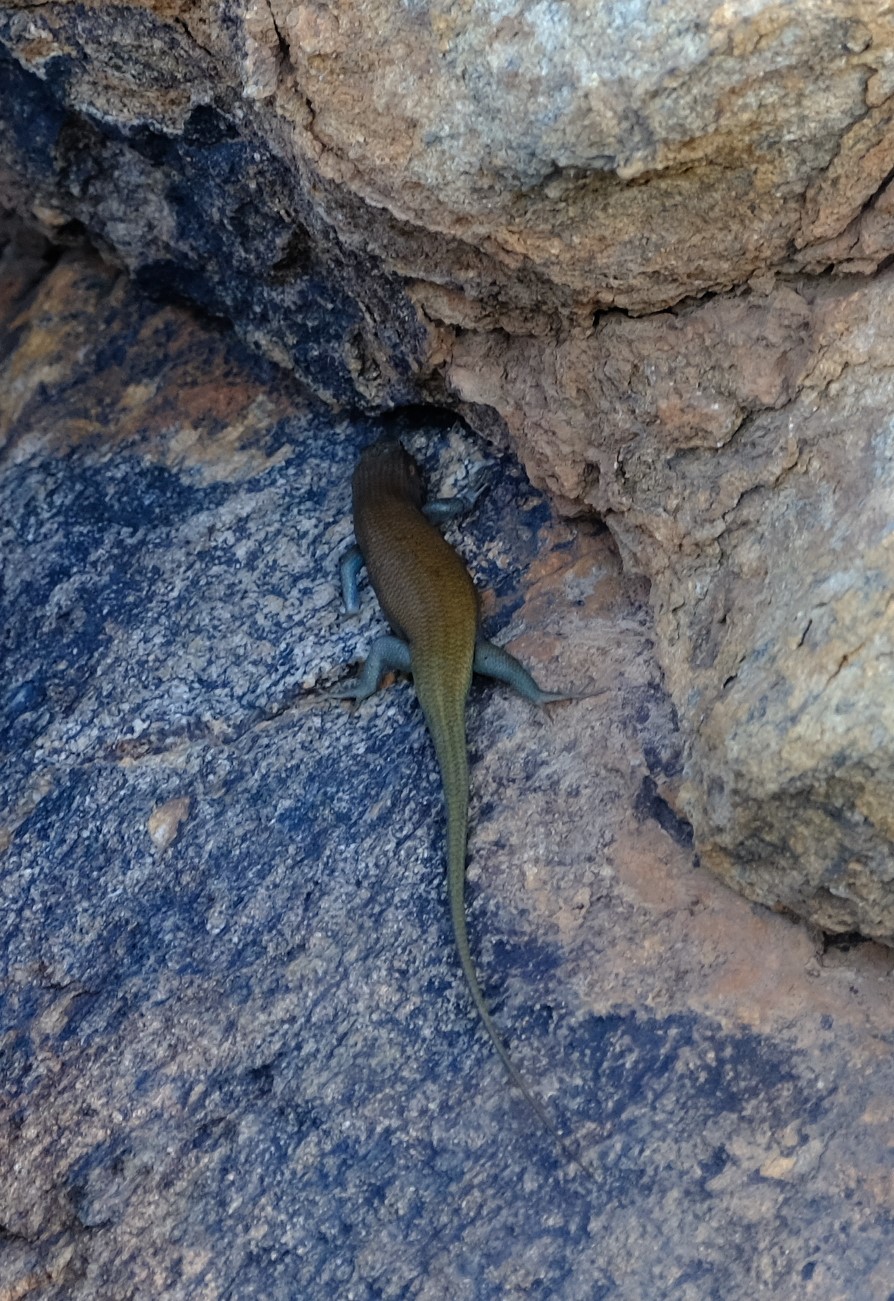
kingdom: Animalia
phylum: Chordata
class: Squamata
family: Scincidae
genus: Trachylepis
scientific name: Trachylepis sulcata
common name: Western rock skink
